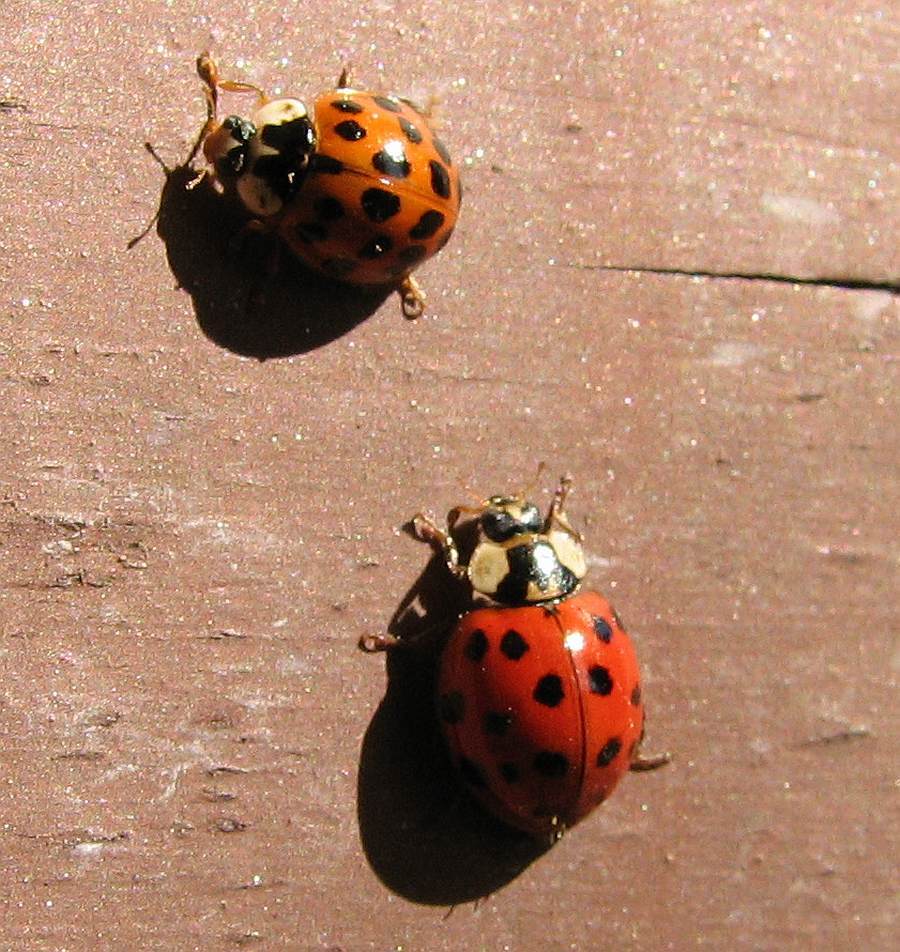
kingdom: Animalia
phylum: Arthropoda
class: Insecta
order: Coleoptera
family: Coccinellidae
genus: Harmonia
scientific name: Harmonia axyridis
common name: Harlequin ladybird
